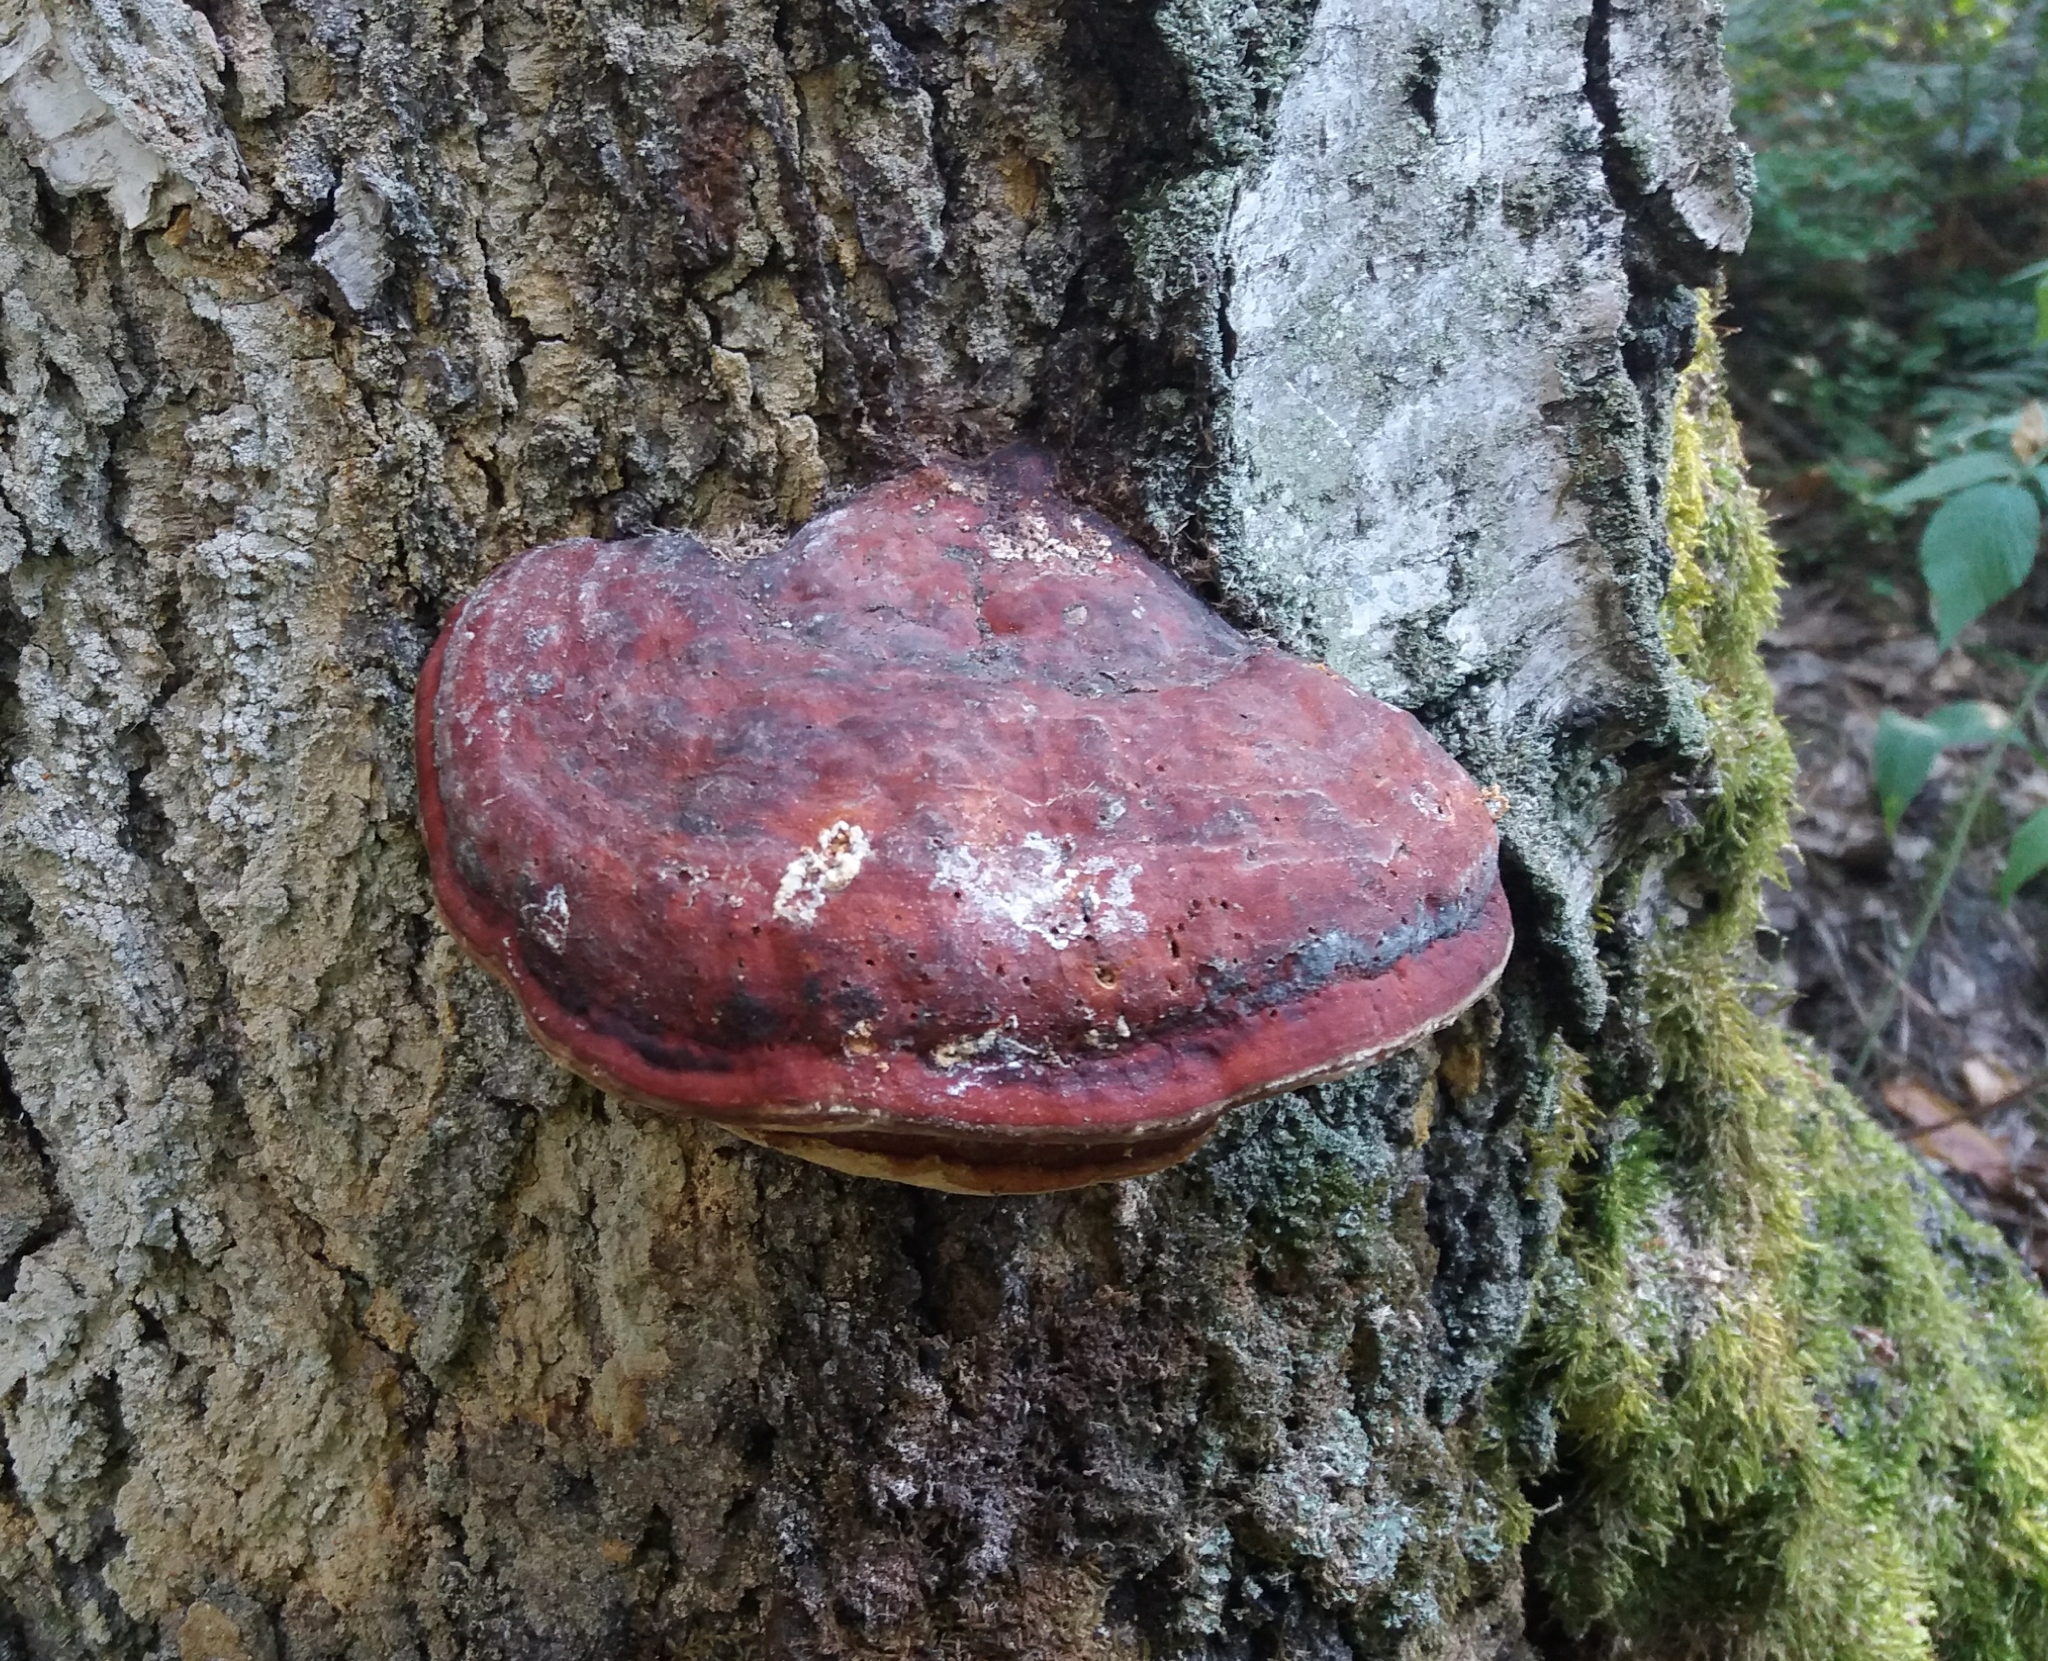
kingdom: Fungi
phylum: Basidiomycota
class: Agaricomycetes
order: Polyporales
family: Fomitopsidaceae
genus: Fomitopsis
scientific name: Fomitopsis pinicola
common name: Red-belted bracket
